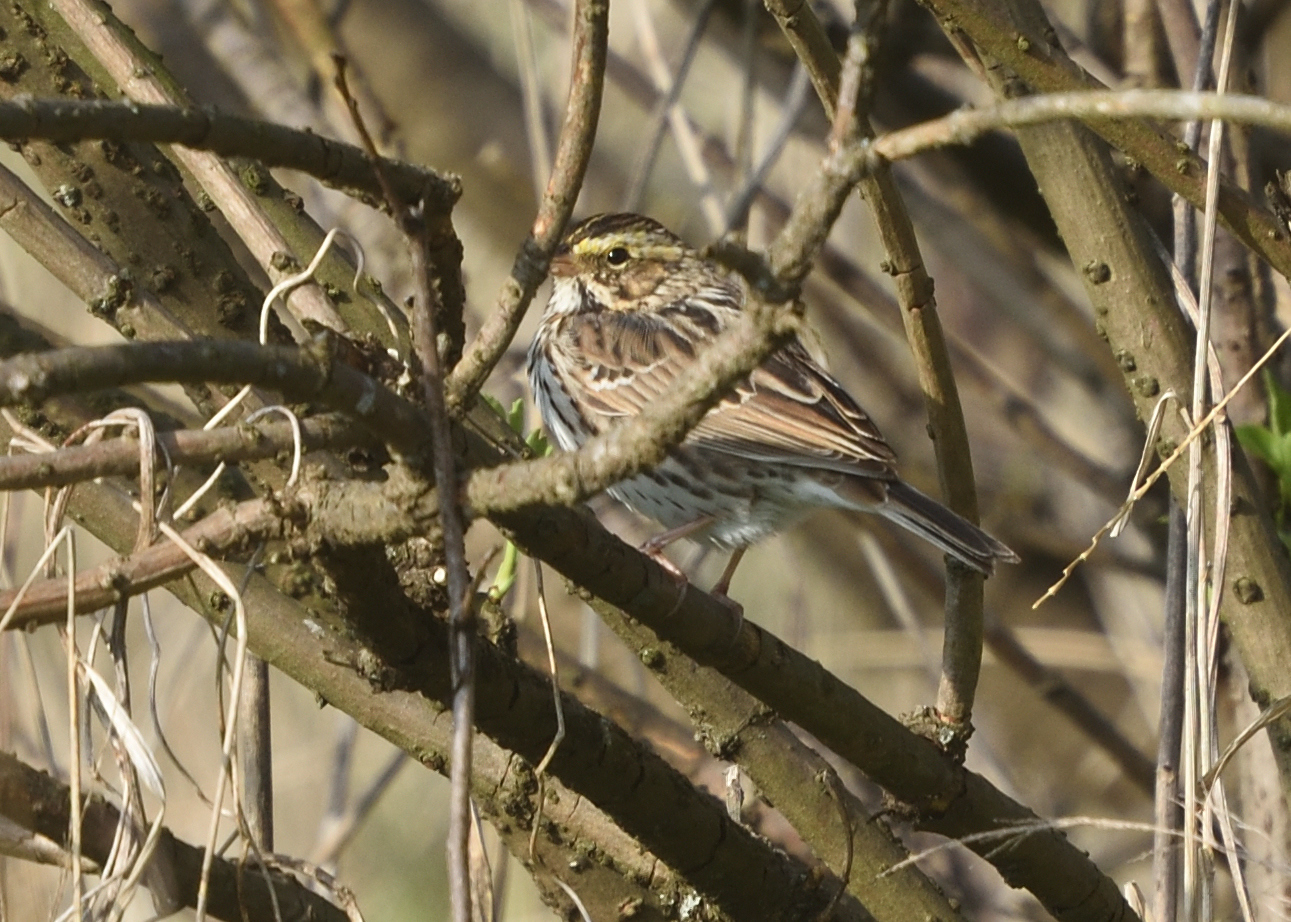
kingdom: Animalia
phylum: Chordata
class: Aves
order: Passeriformes
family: Passerellidae
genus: Passerculus
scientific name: Passerculus sandwichensis
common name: Savannah sparrow
